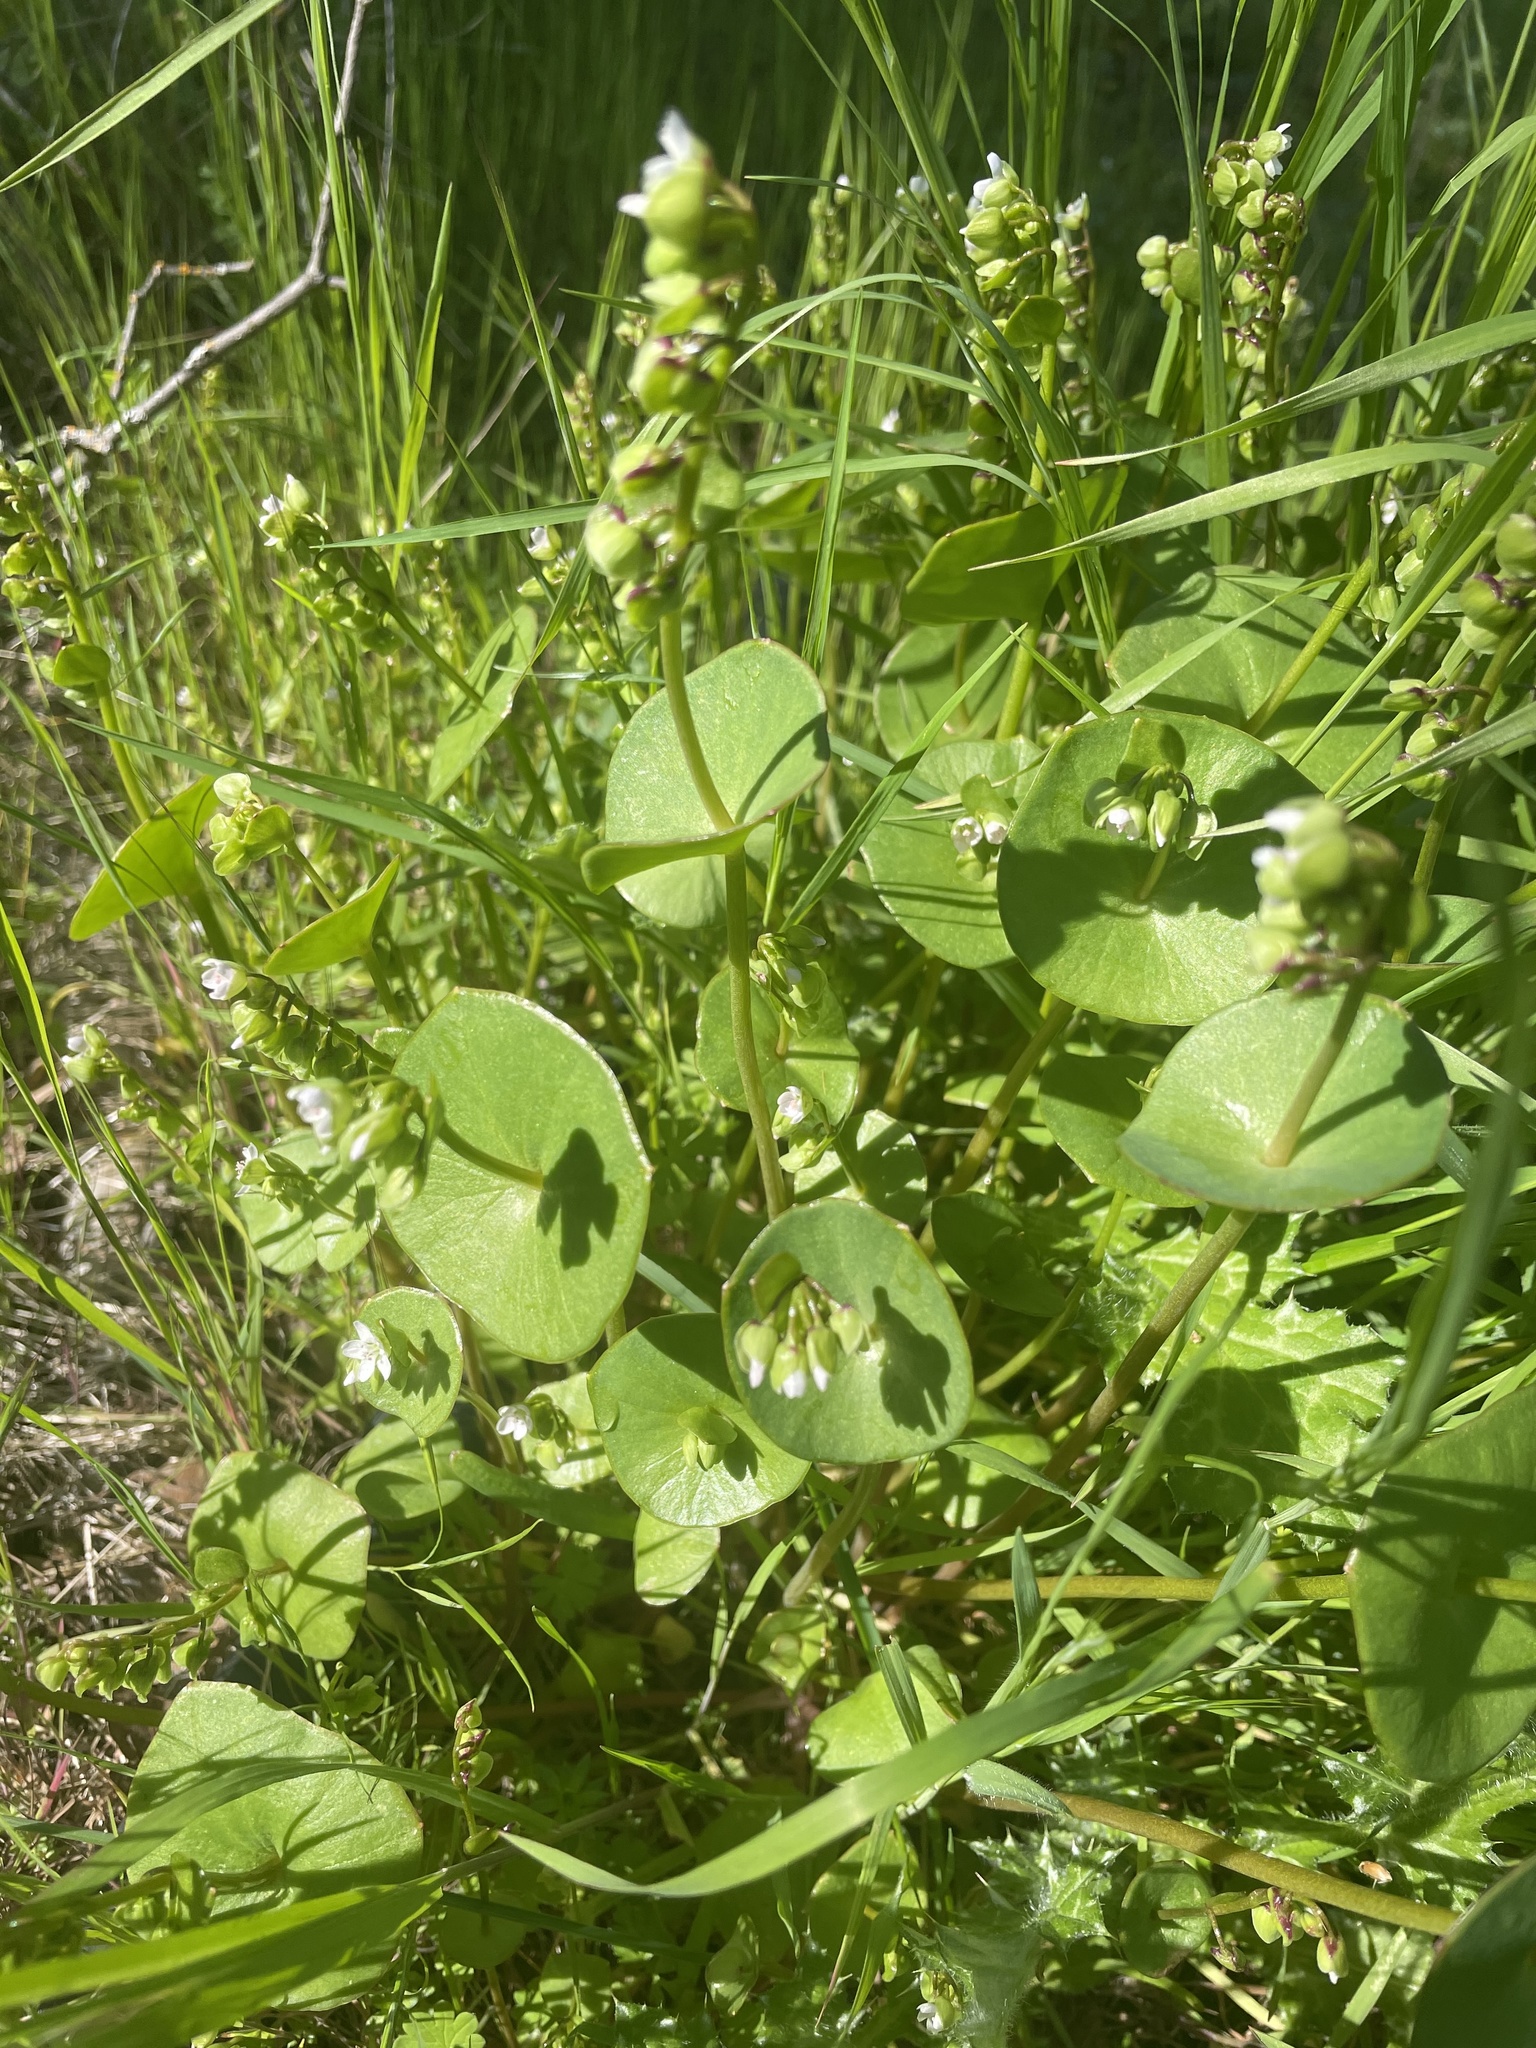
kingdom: Plantae
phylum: Tracheophyta
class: Magnoliopsida
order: Caryophyllales
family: Montiaceae
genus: Claytonia
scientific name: Claytonia perfoliata
